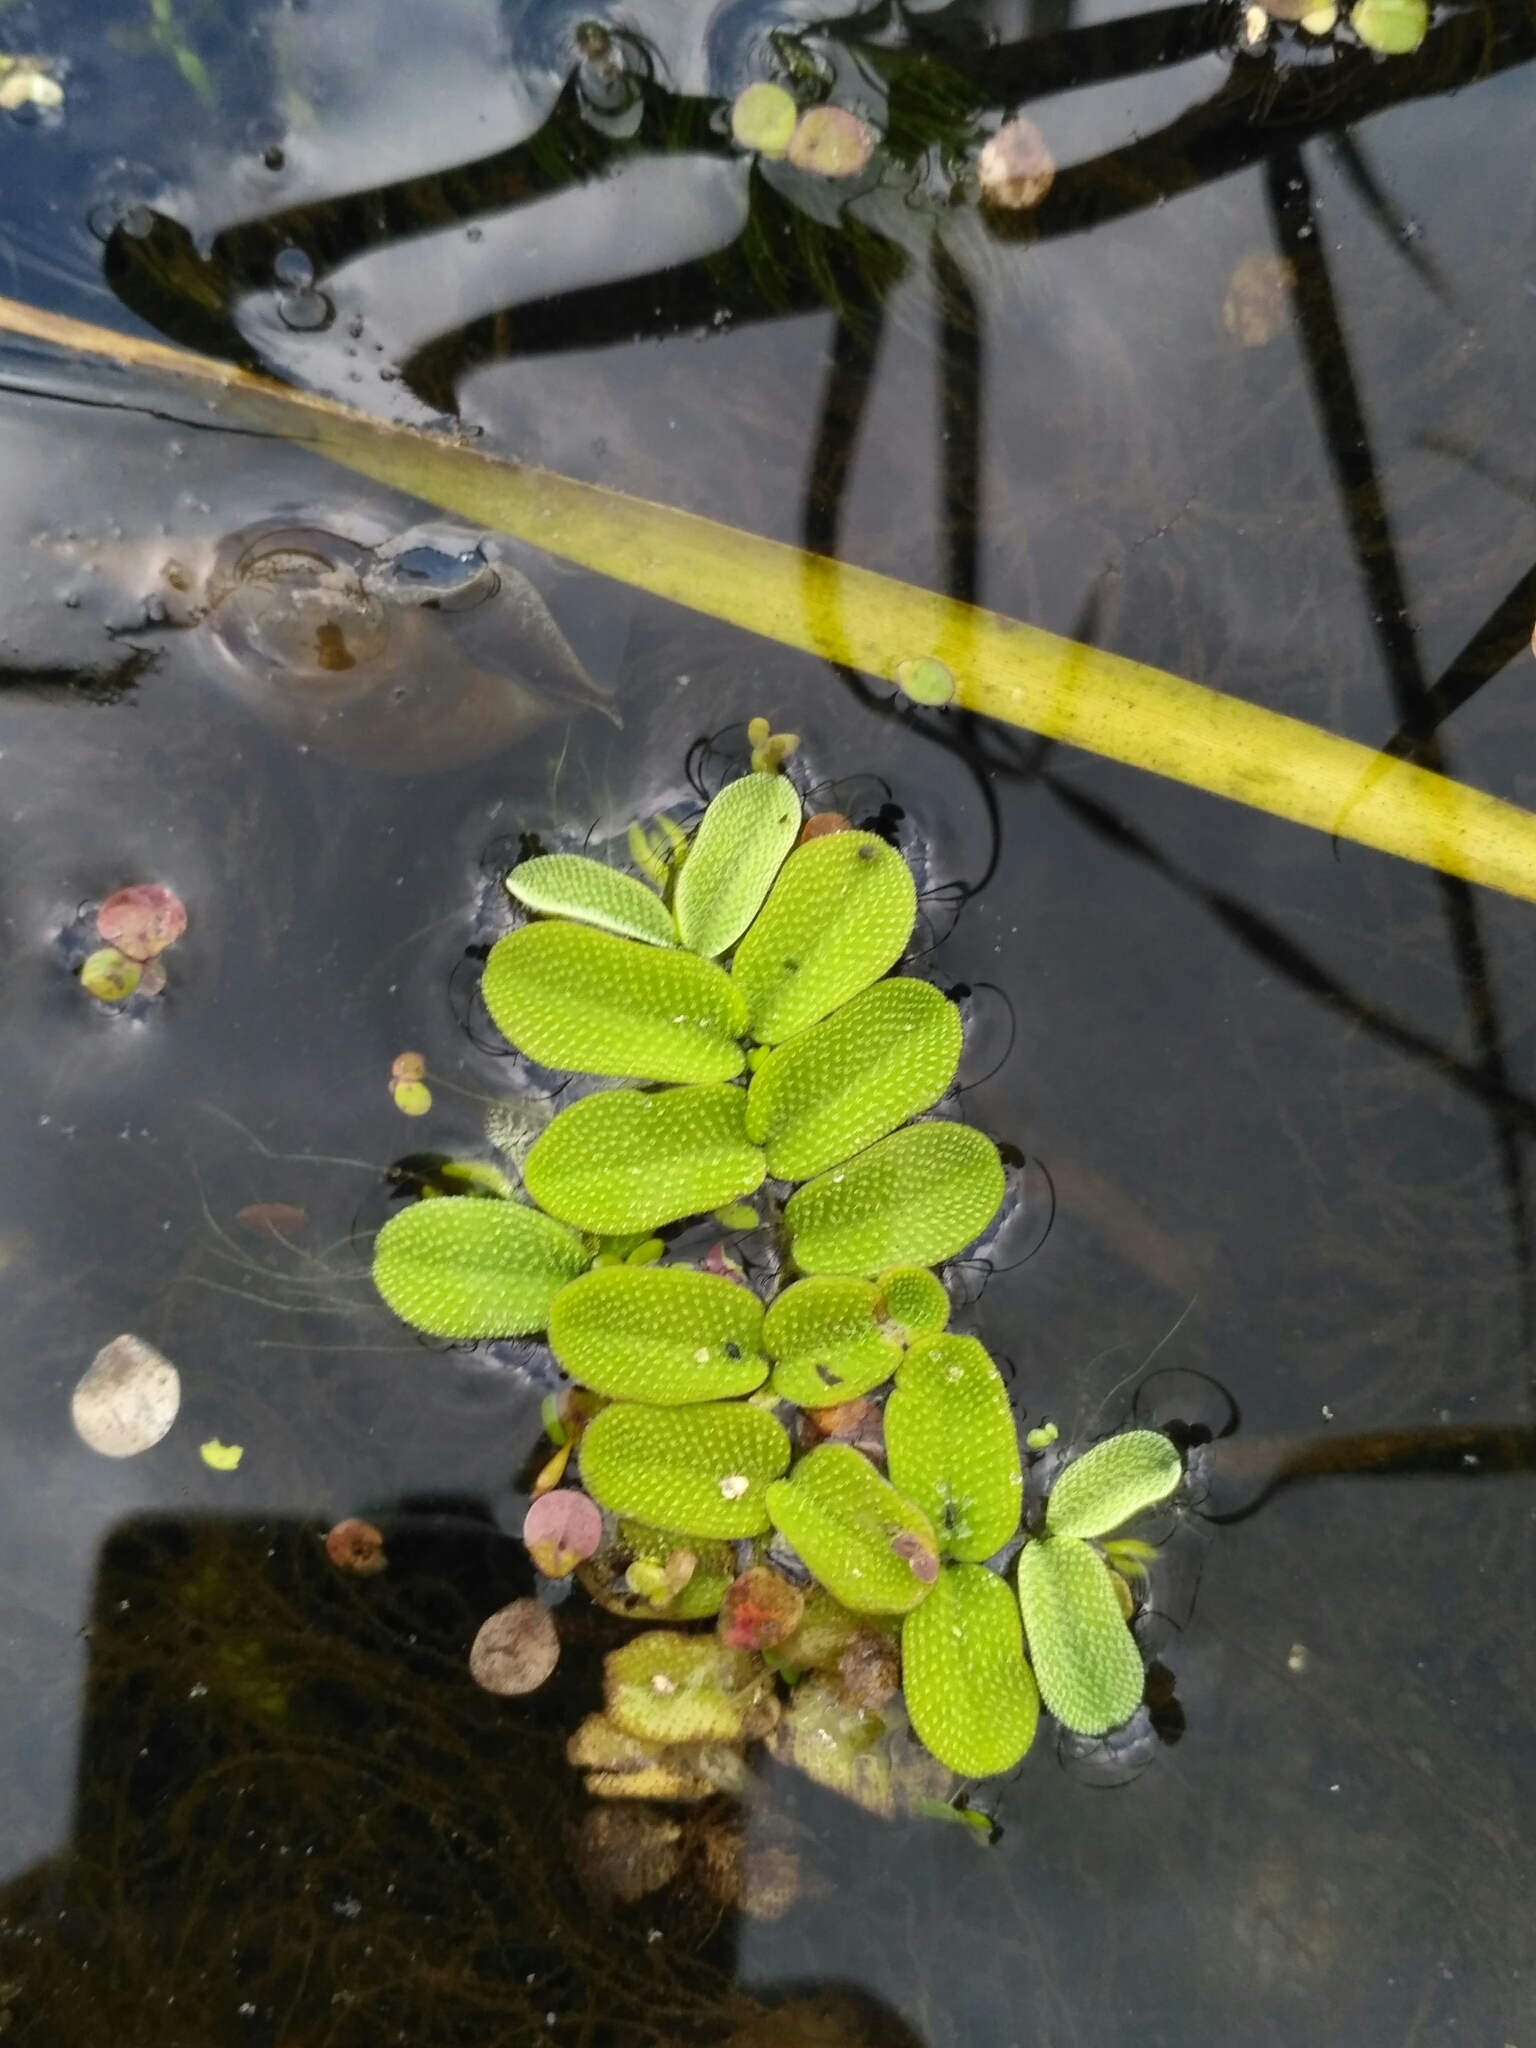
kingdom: Plantae
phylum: Tracheophyta
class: Polypodiopsida
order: Salviniales
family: Salviniaceae
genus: Salvinia
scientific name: Salvinia natans
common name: Floating fern
